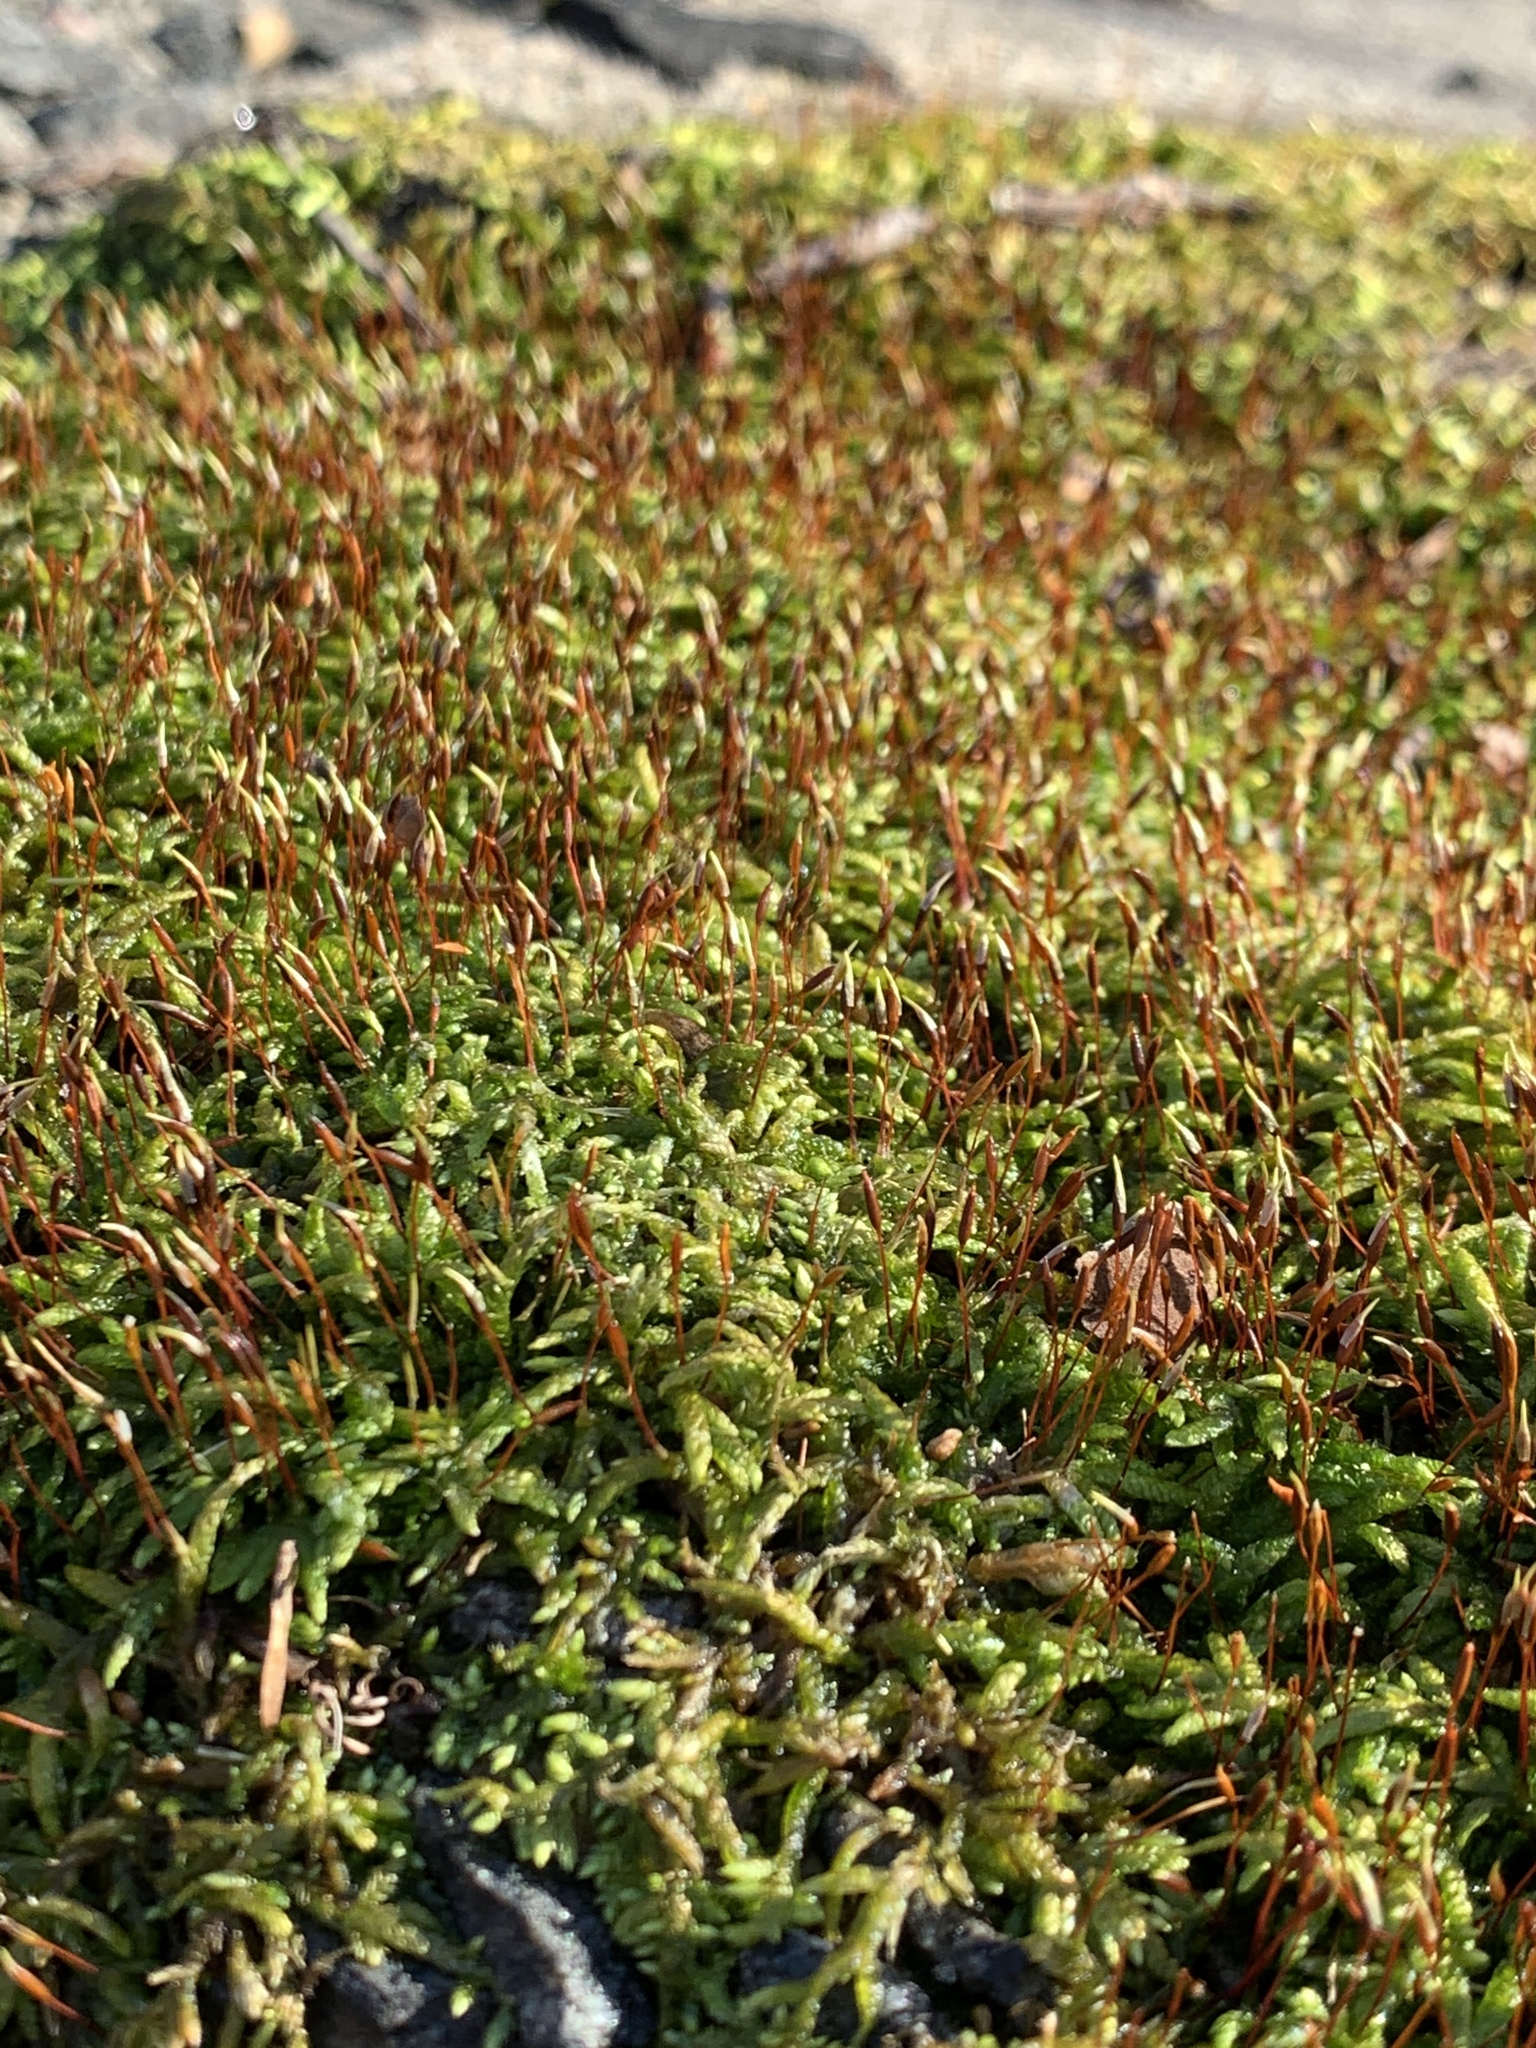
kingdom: Plantae
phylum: Bryophyta
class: Bryopsida
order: Hypnales
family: Entodontaceae
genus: Entodon
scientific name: Entodon
